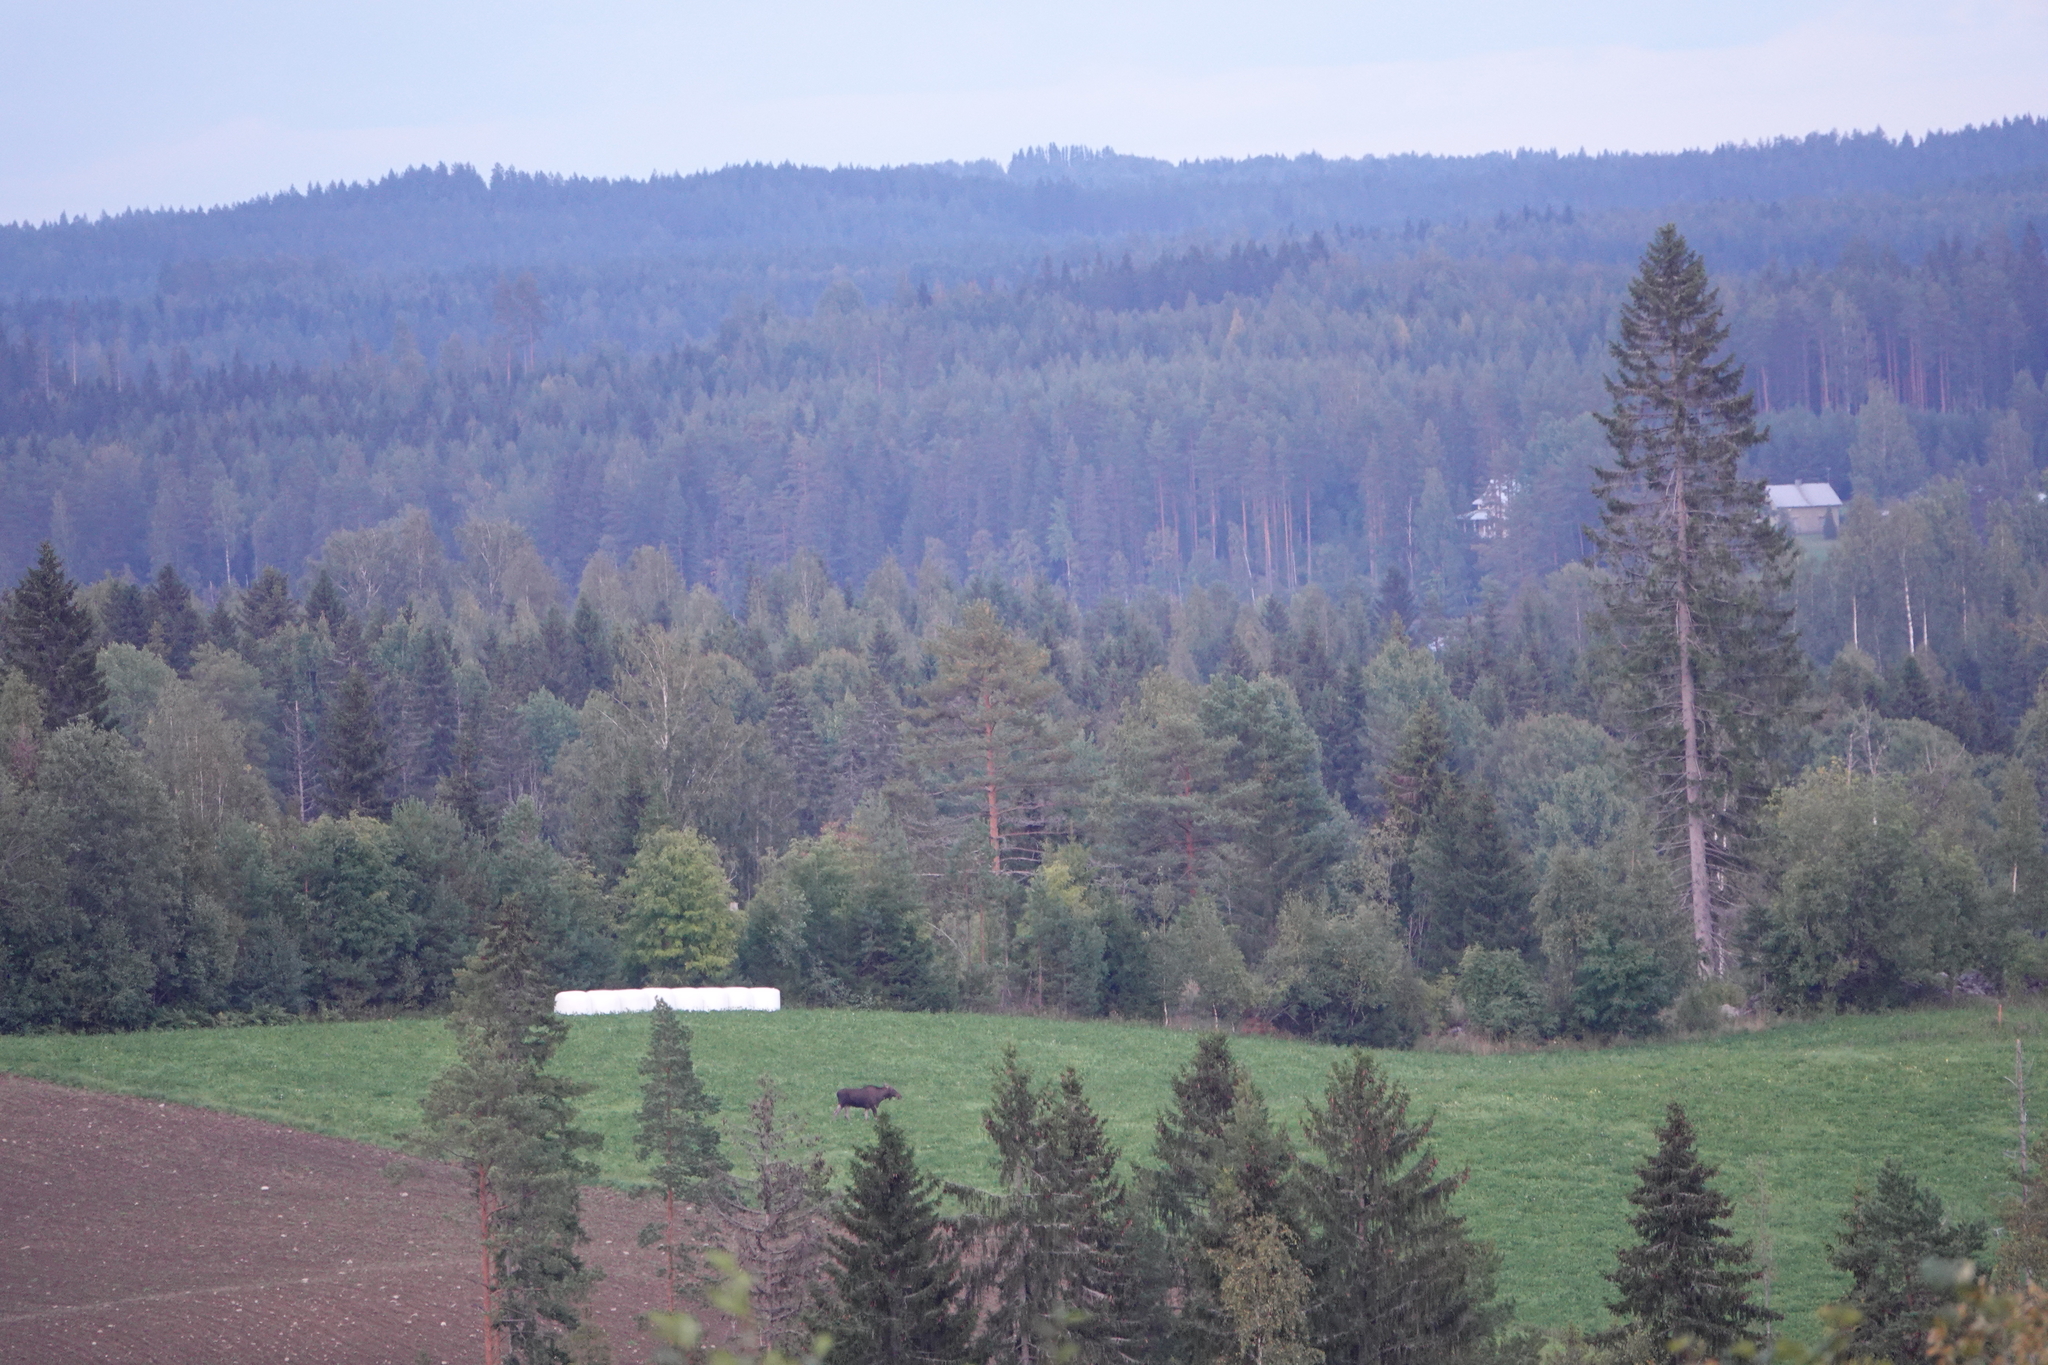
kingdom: Animalia
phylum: Chordata
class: Mammalia
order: Artiodactyla
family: Cervidae
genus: Alces
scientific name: Alces alces
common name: Moose
